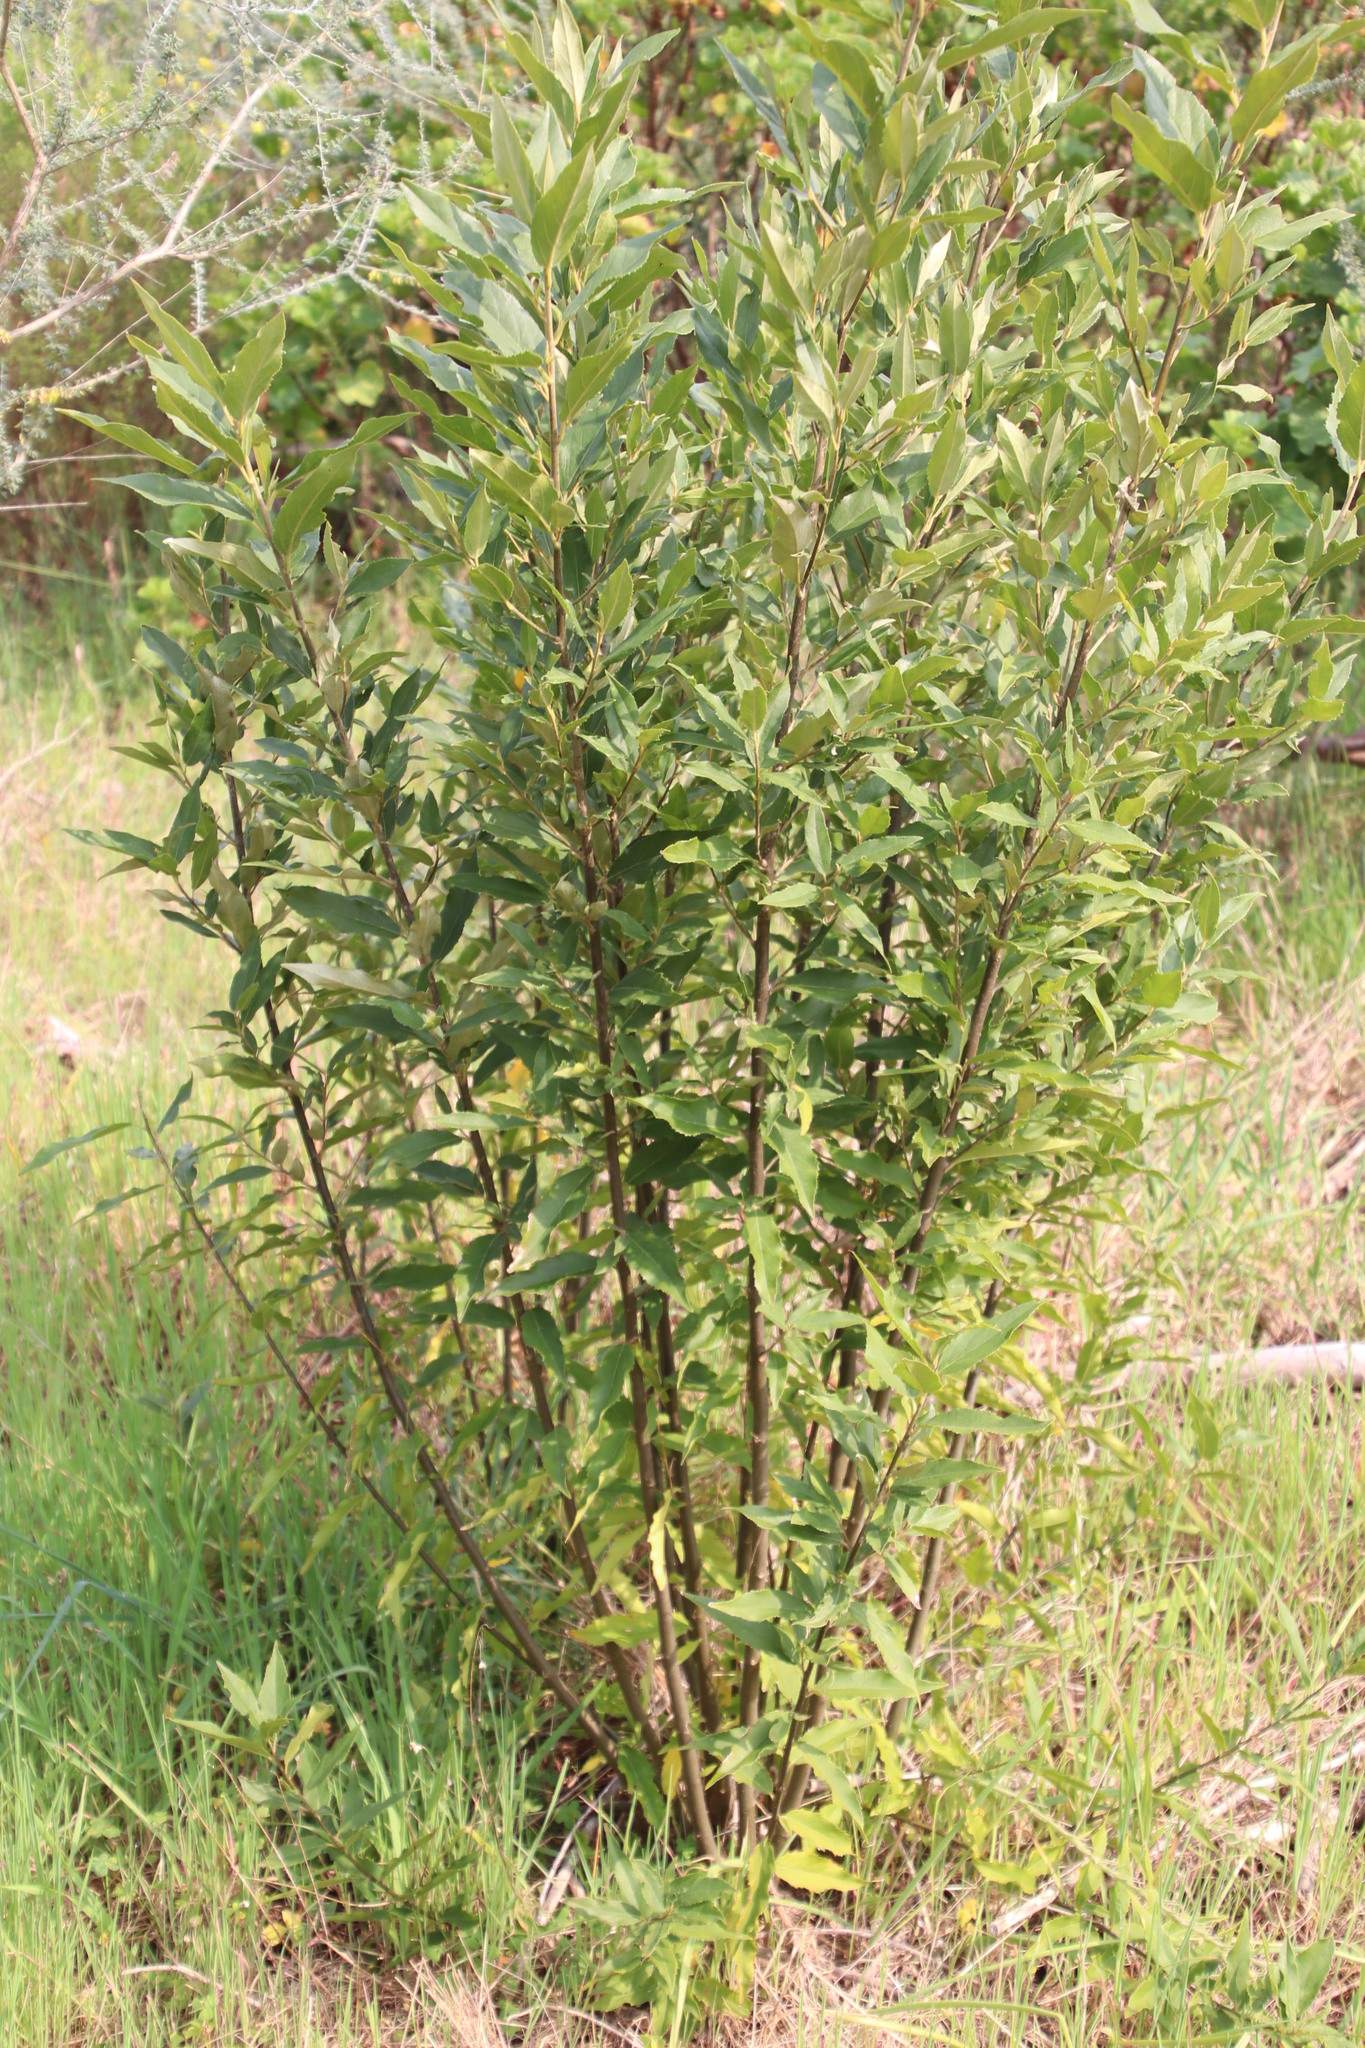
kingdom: Plantae
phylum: Tracheophyta
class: Magnoliopsida
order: Malpighiales
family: Achariaceae
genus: Kiggelaria
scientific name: Kiggelaria africana
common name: Wild peach
